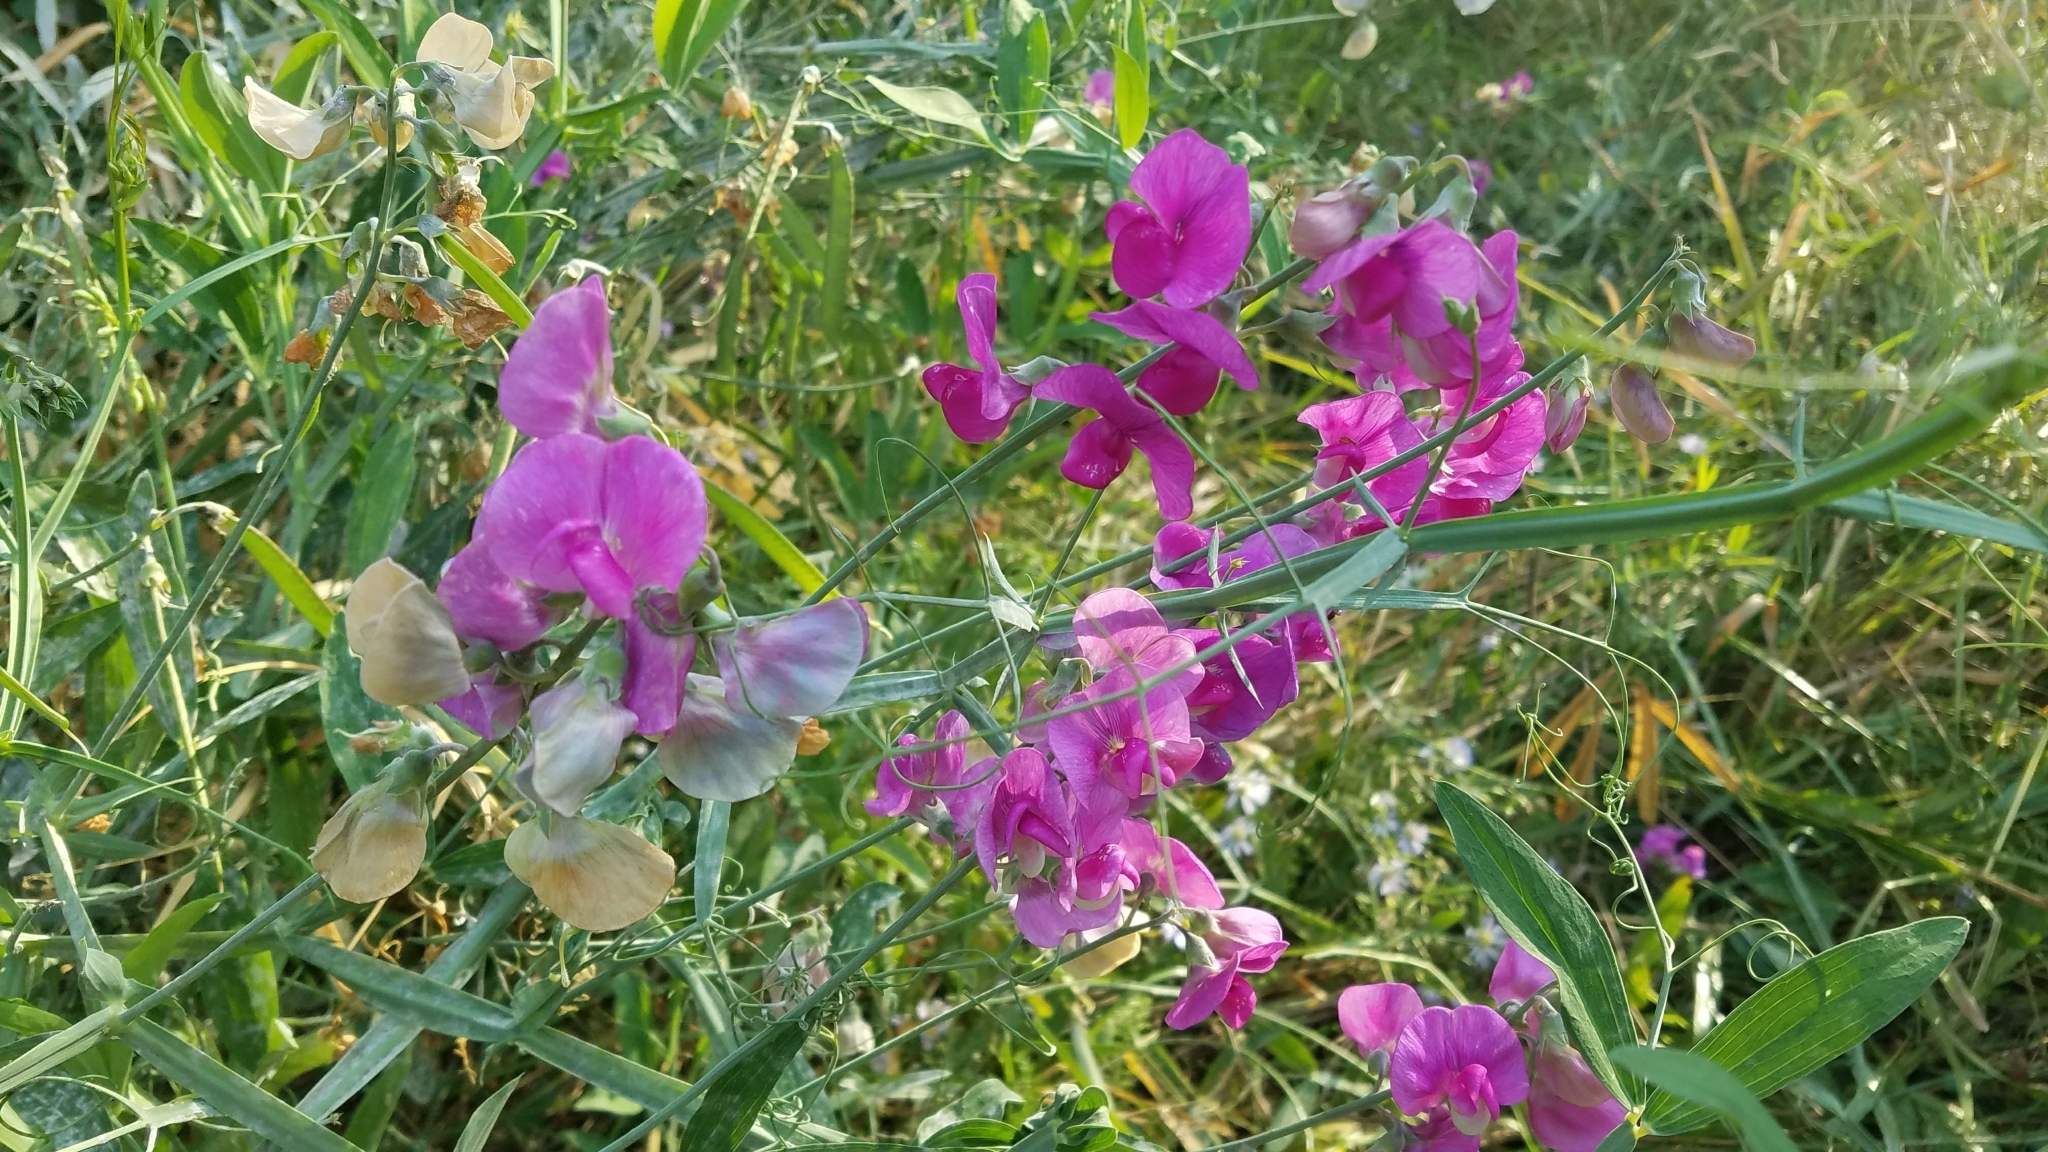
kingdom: Plantae
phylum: Tracheophyta
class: Magnoliopsida
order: Fabales
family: Fabaceae
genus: Lathyrus
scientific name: Lathyrus latifolius
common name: Perennial pea
